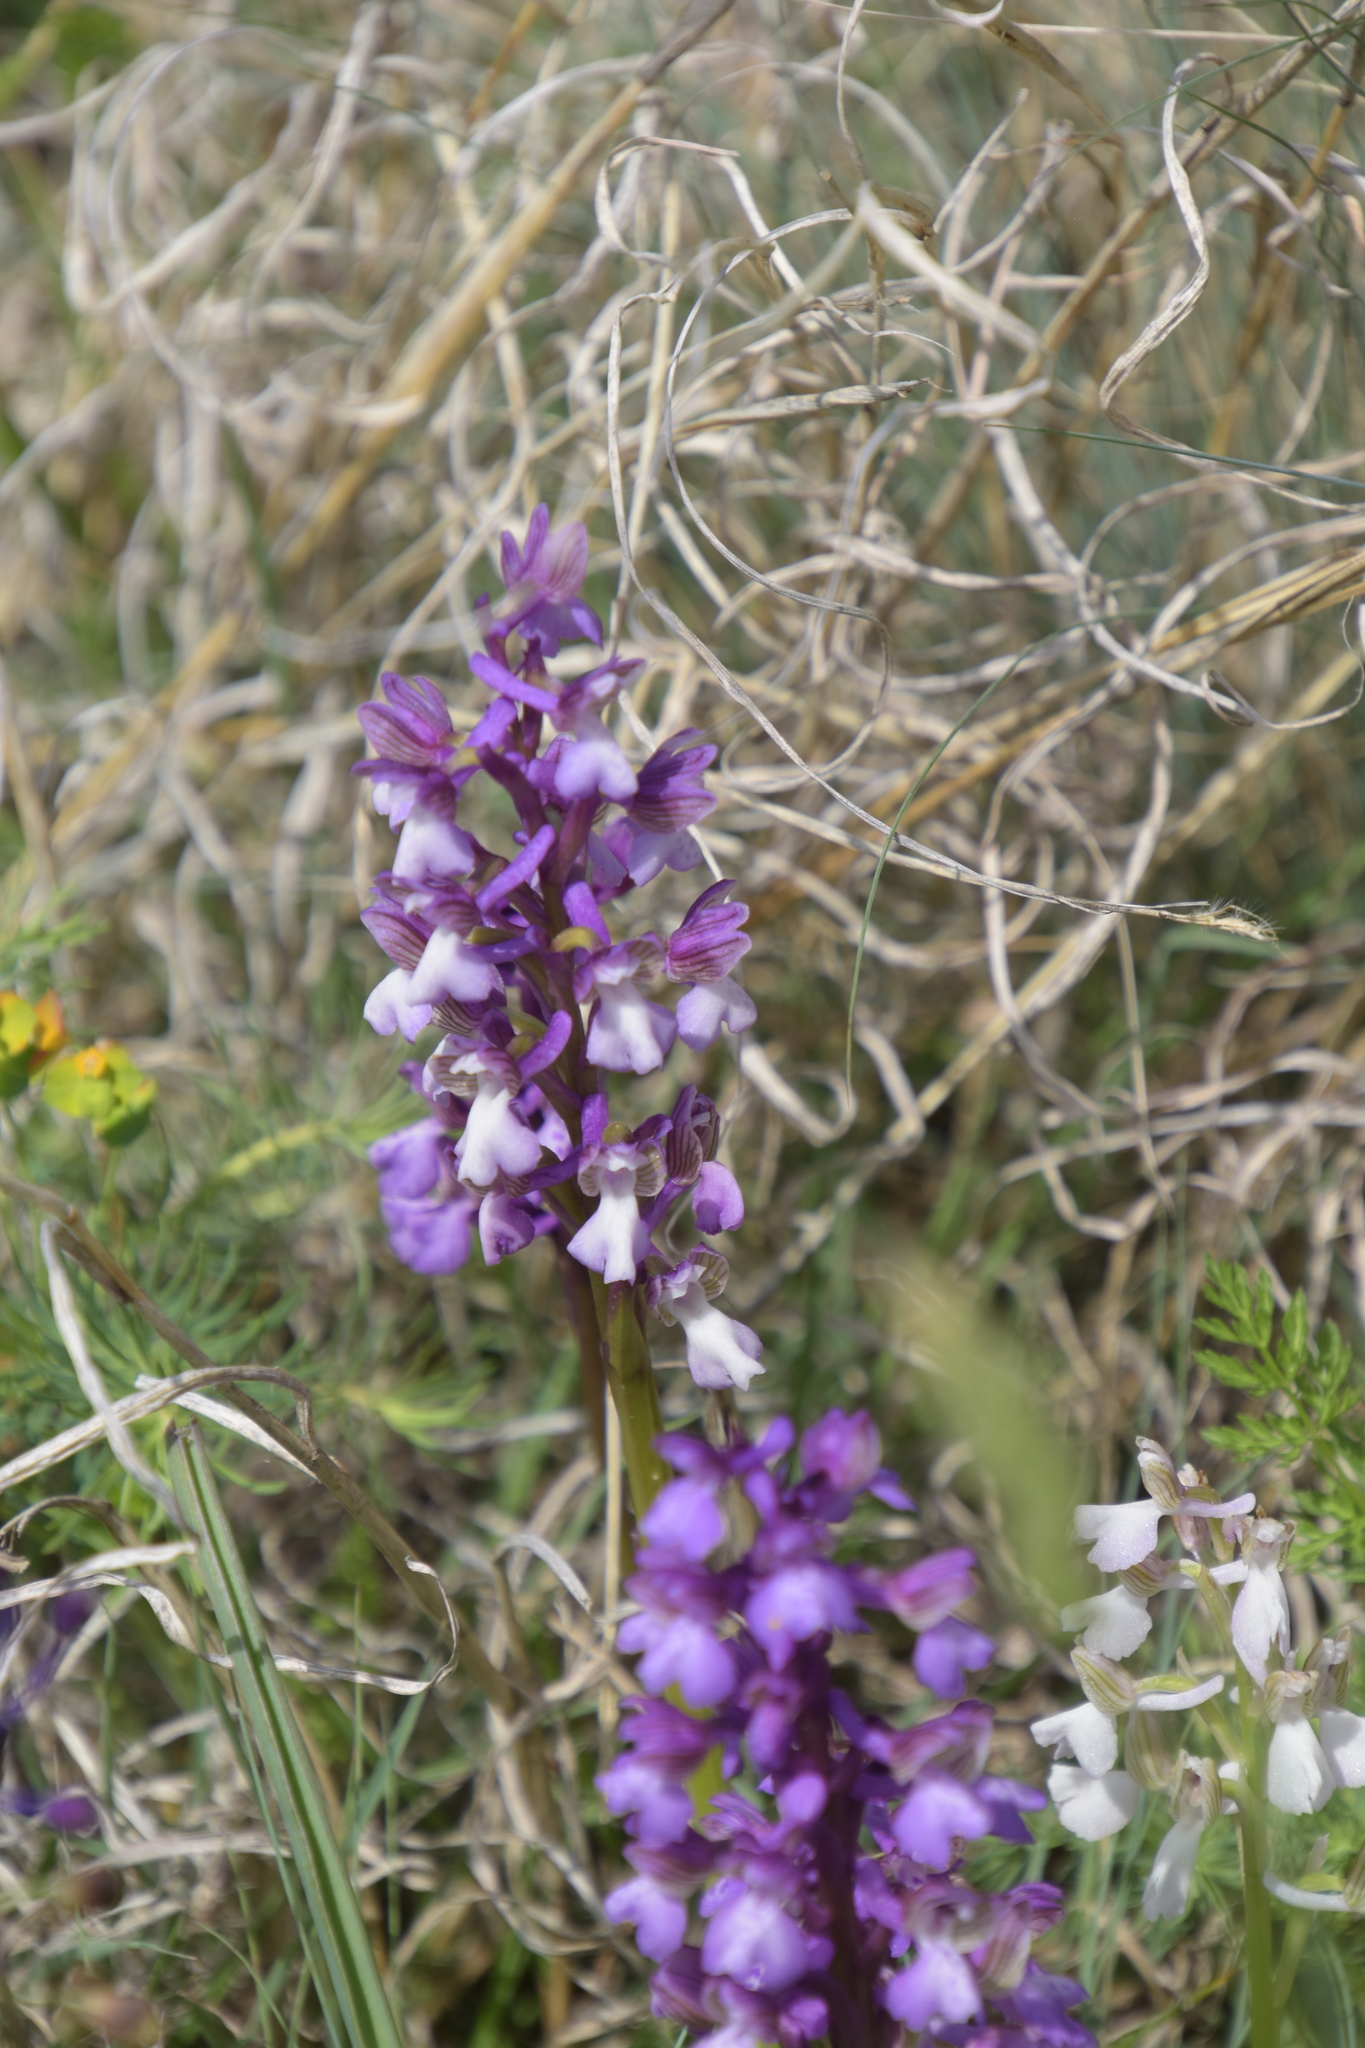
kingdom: Plantae
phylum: Tracheophyta
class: Liliopsida
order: Asparagales
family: Orchidaceae
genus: Anacamptis
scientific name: Anacamptis morio
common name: Green-winged orchid
